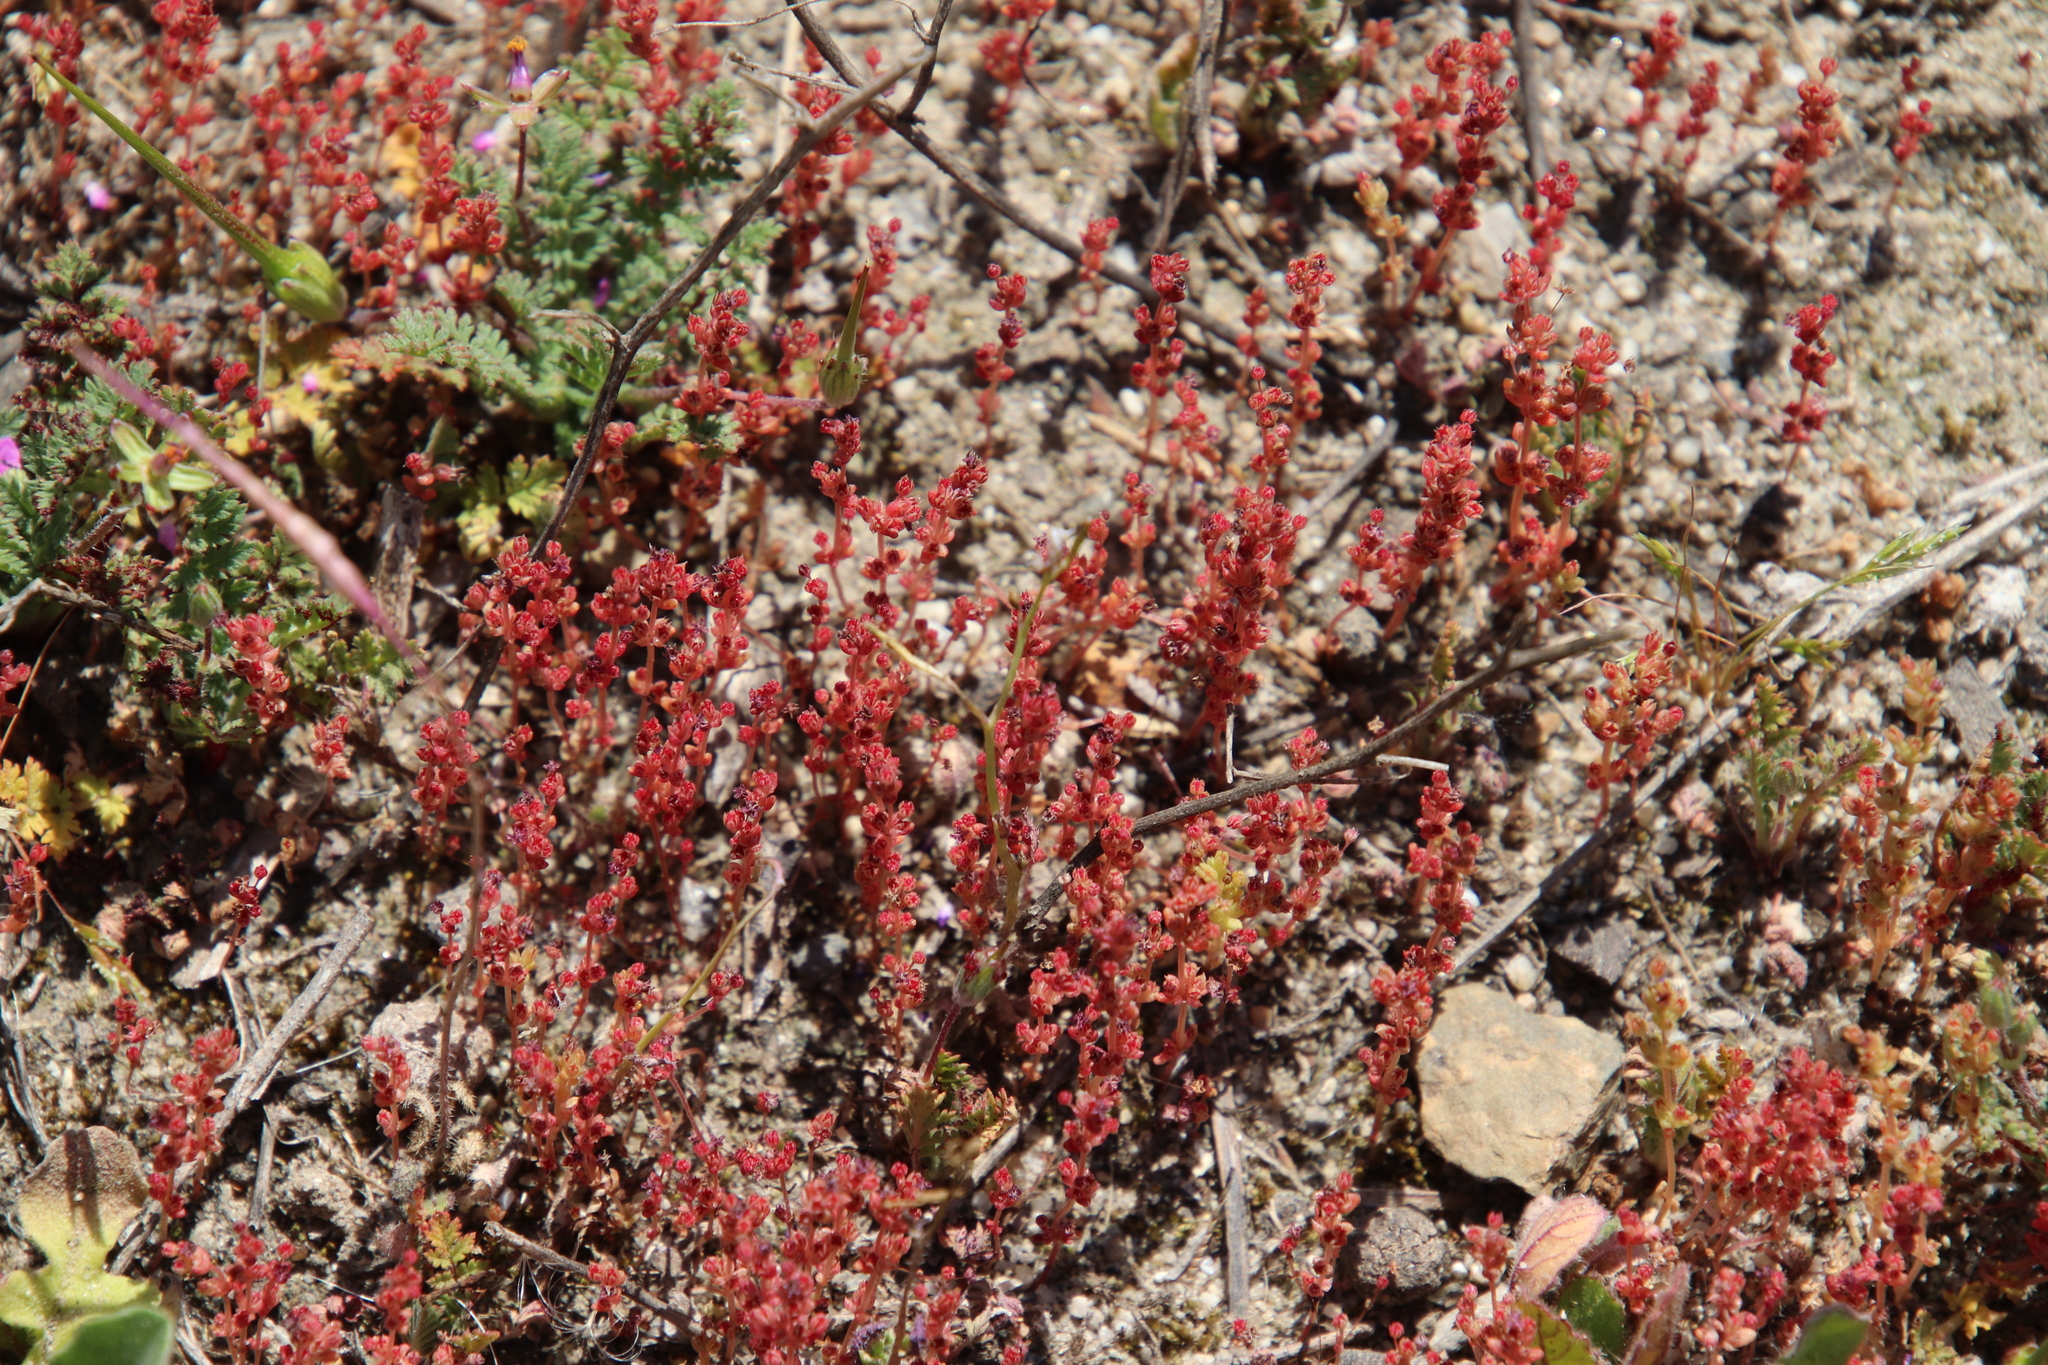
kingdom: Plantae
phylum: Tracheophyta
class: Magnoliopsida
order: Saxifragales
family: Crassulaceae
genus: Crassula
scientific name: Crassula connata
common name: Erect pygmyweed
